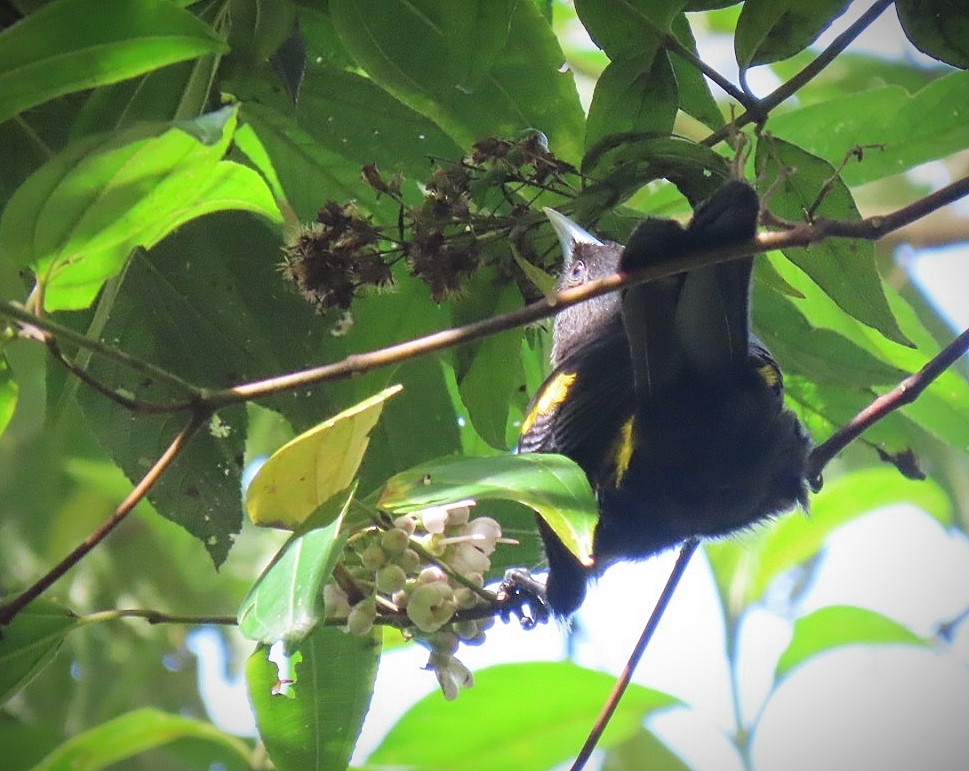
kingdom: Animalia
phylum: Chordata
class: Aves
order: Passeriformes
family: Icteridae
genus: Cacicus
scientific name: Cacicus chrysonotus
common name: Southern mountain cacique
